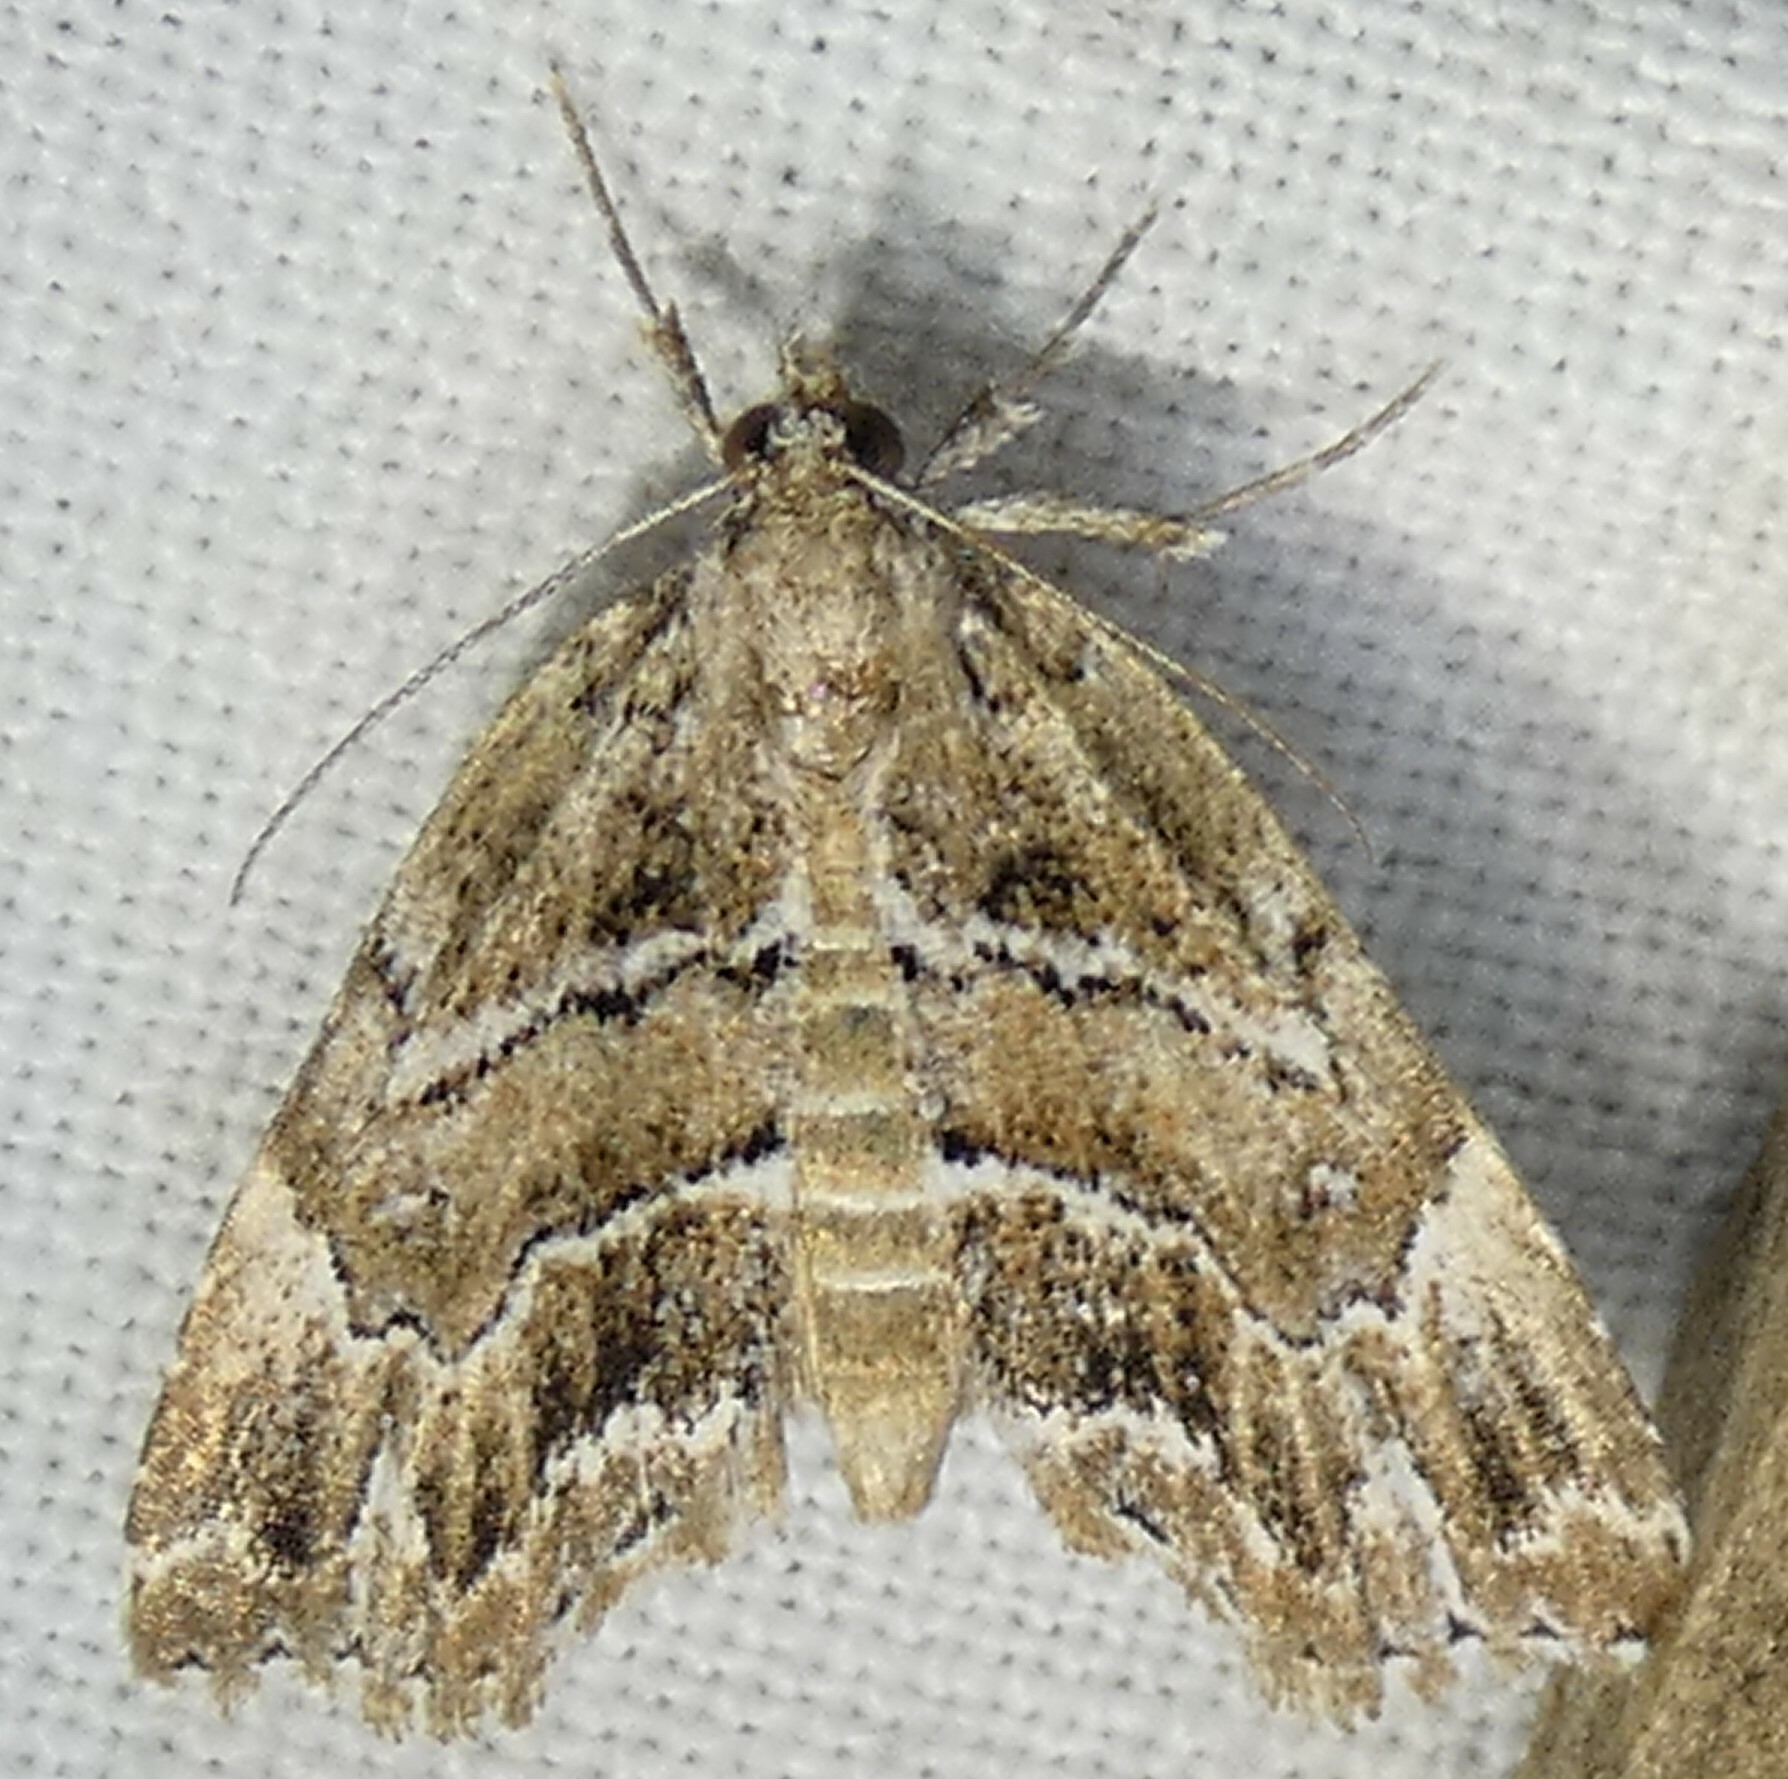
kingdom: Animalia
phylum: Arthropoda
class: Insecta
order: Lepidoptera
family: Erebidae
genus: Cutina
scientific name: Cutina arcuata
